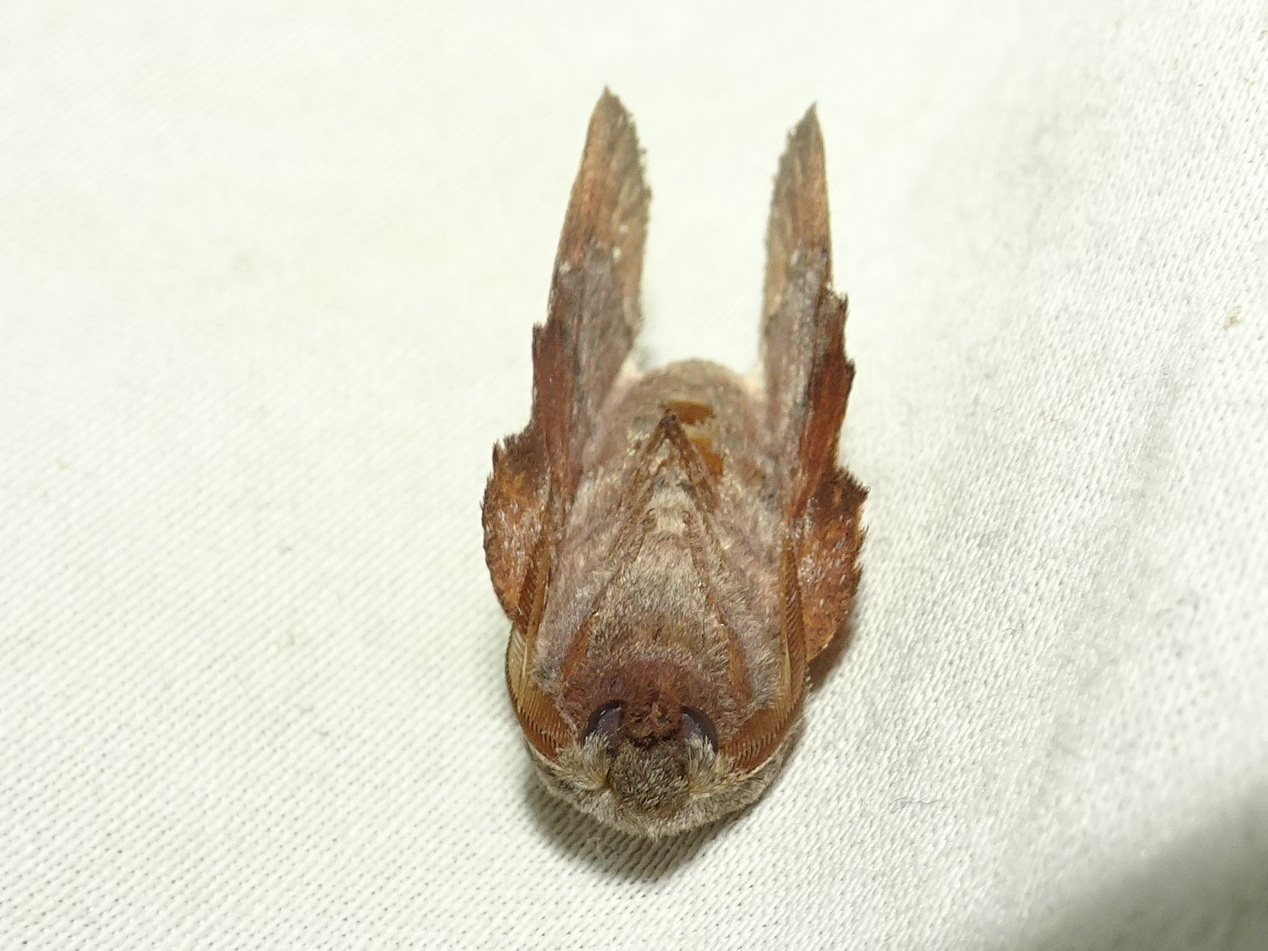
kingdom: Animalia
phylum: Arthropoda
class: Insecta
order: Lepidoptera
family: Lasiocampidae
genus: Phyllodesma
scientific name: Phyllodesma americana
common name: American lappet moth
